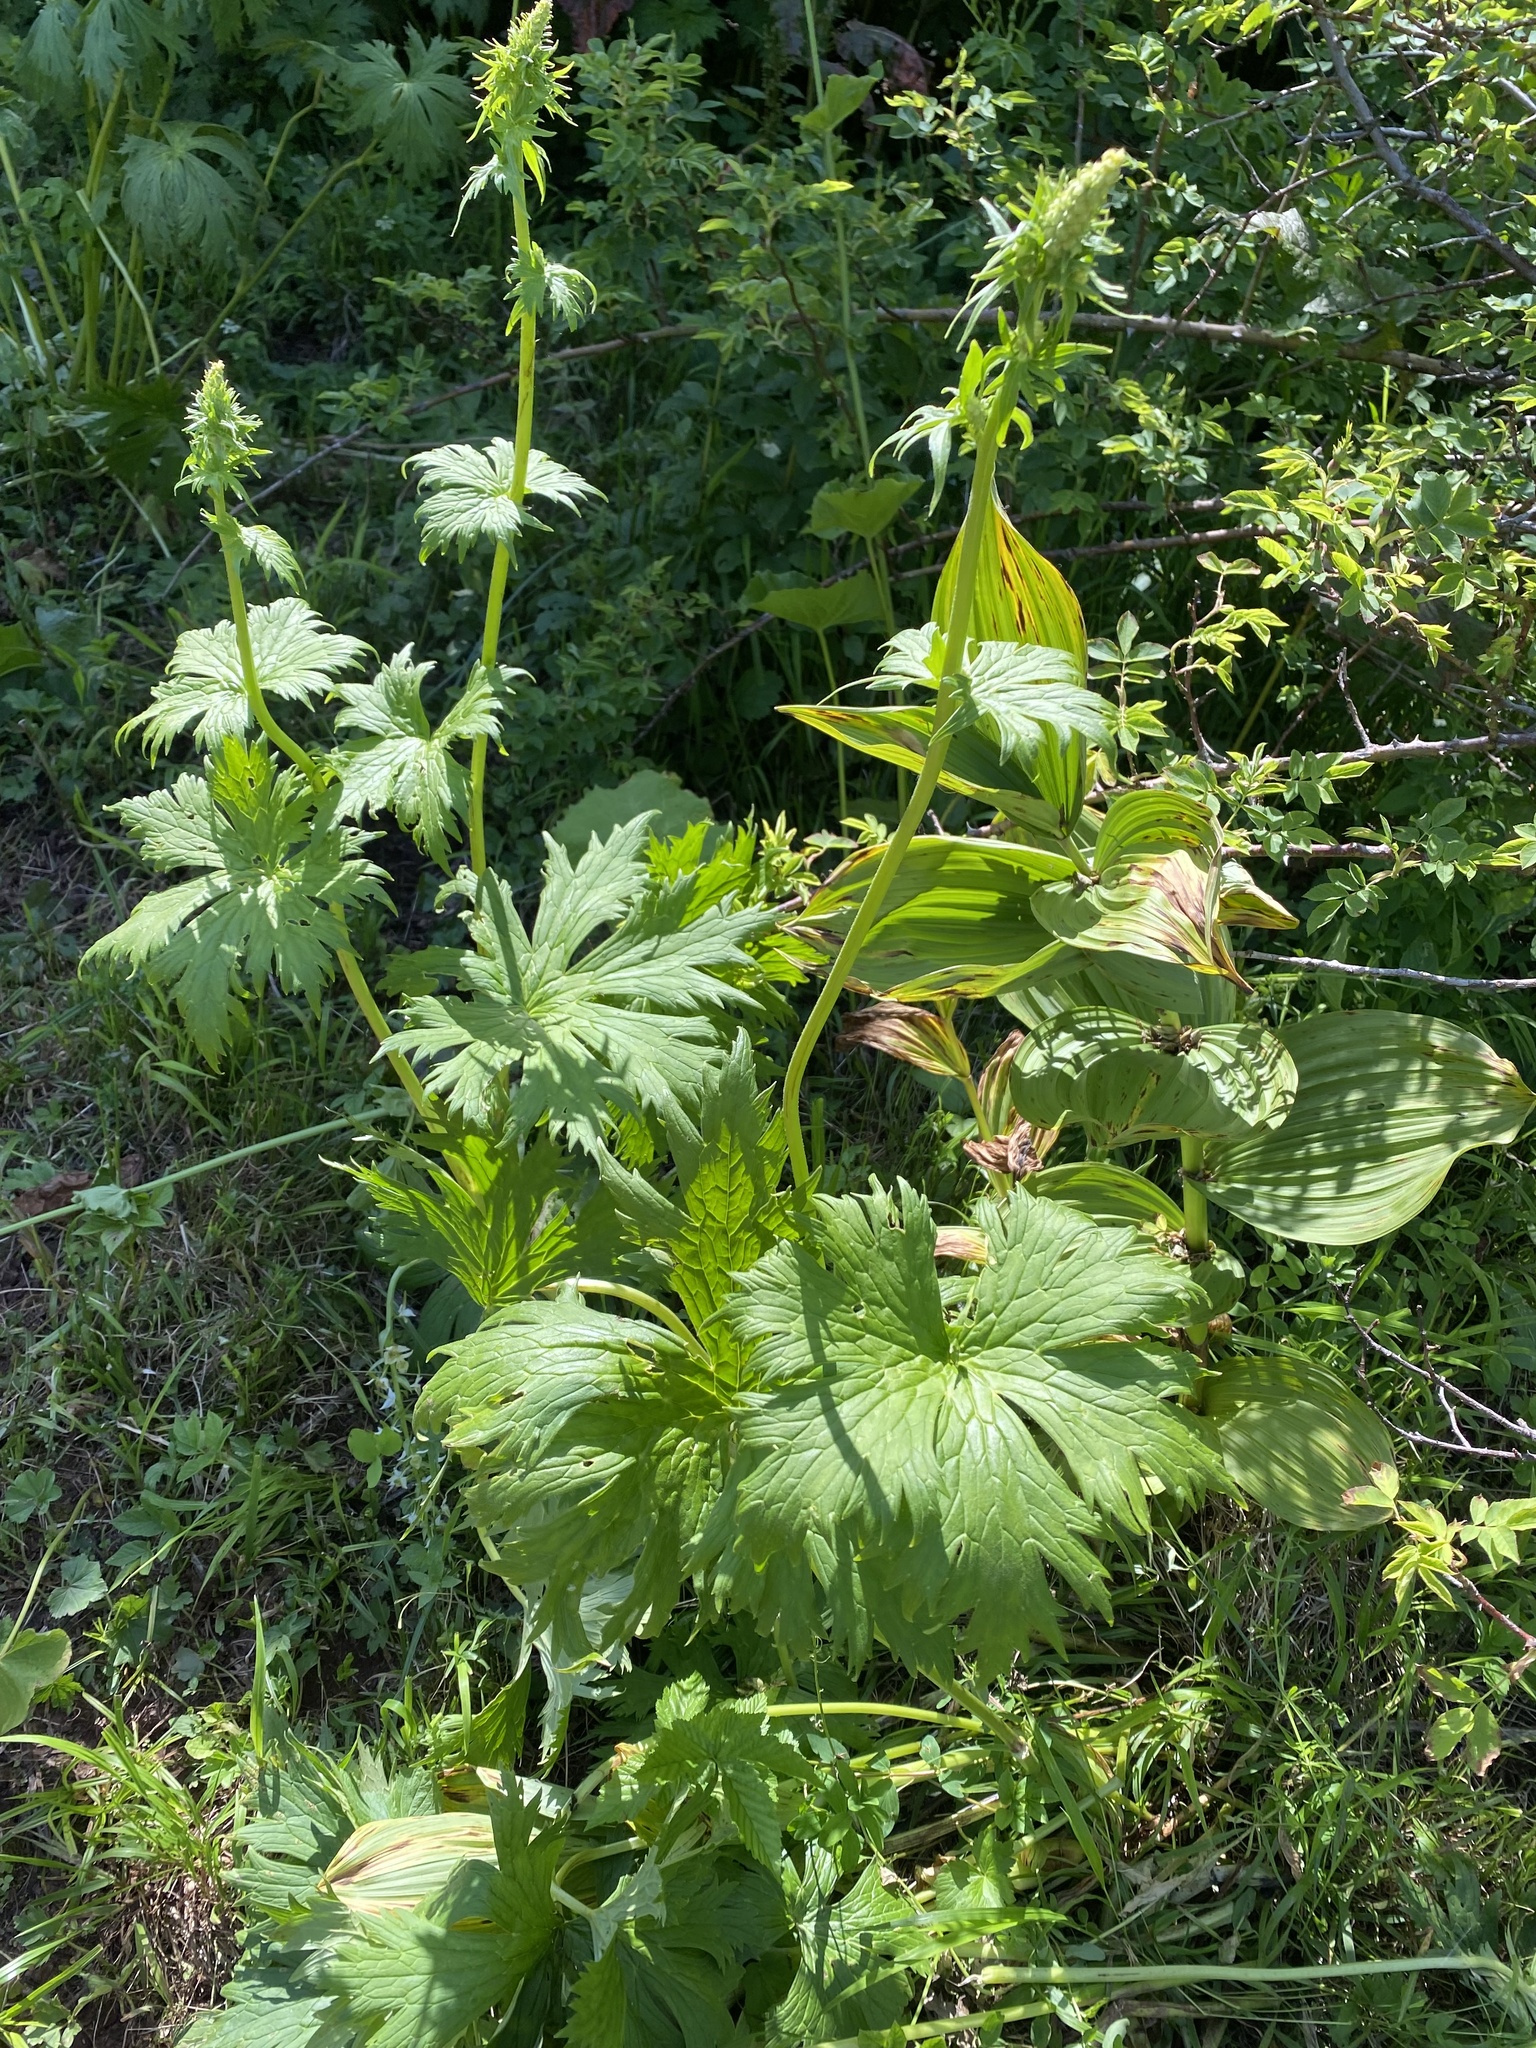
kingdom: Plantae
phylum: Tracheophyta
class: Magnoliopsida
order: Ranunculales
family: Ranunculaceae
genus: Aconitum
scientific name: Aconitum orientale
